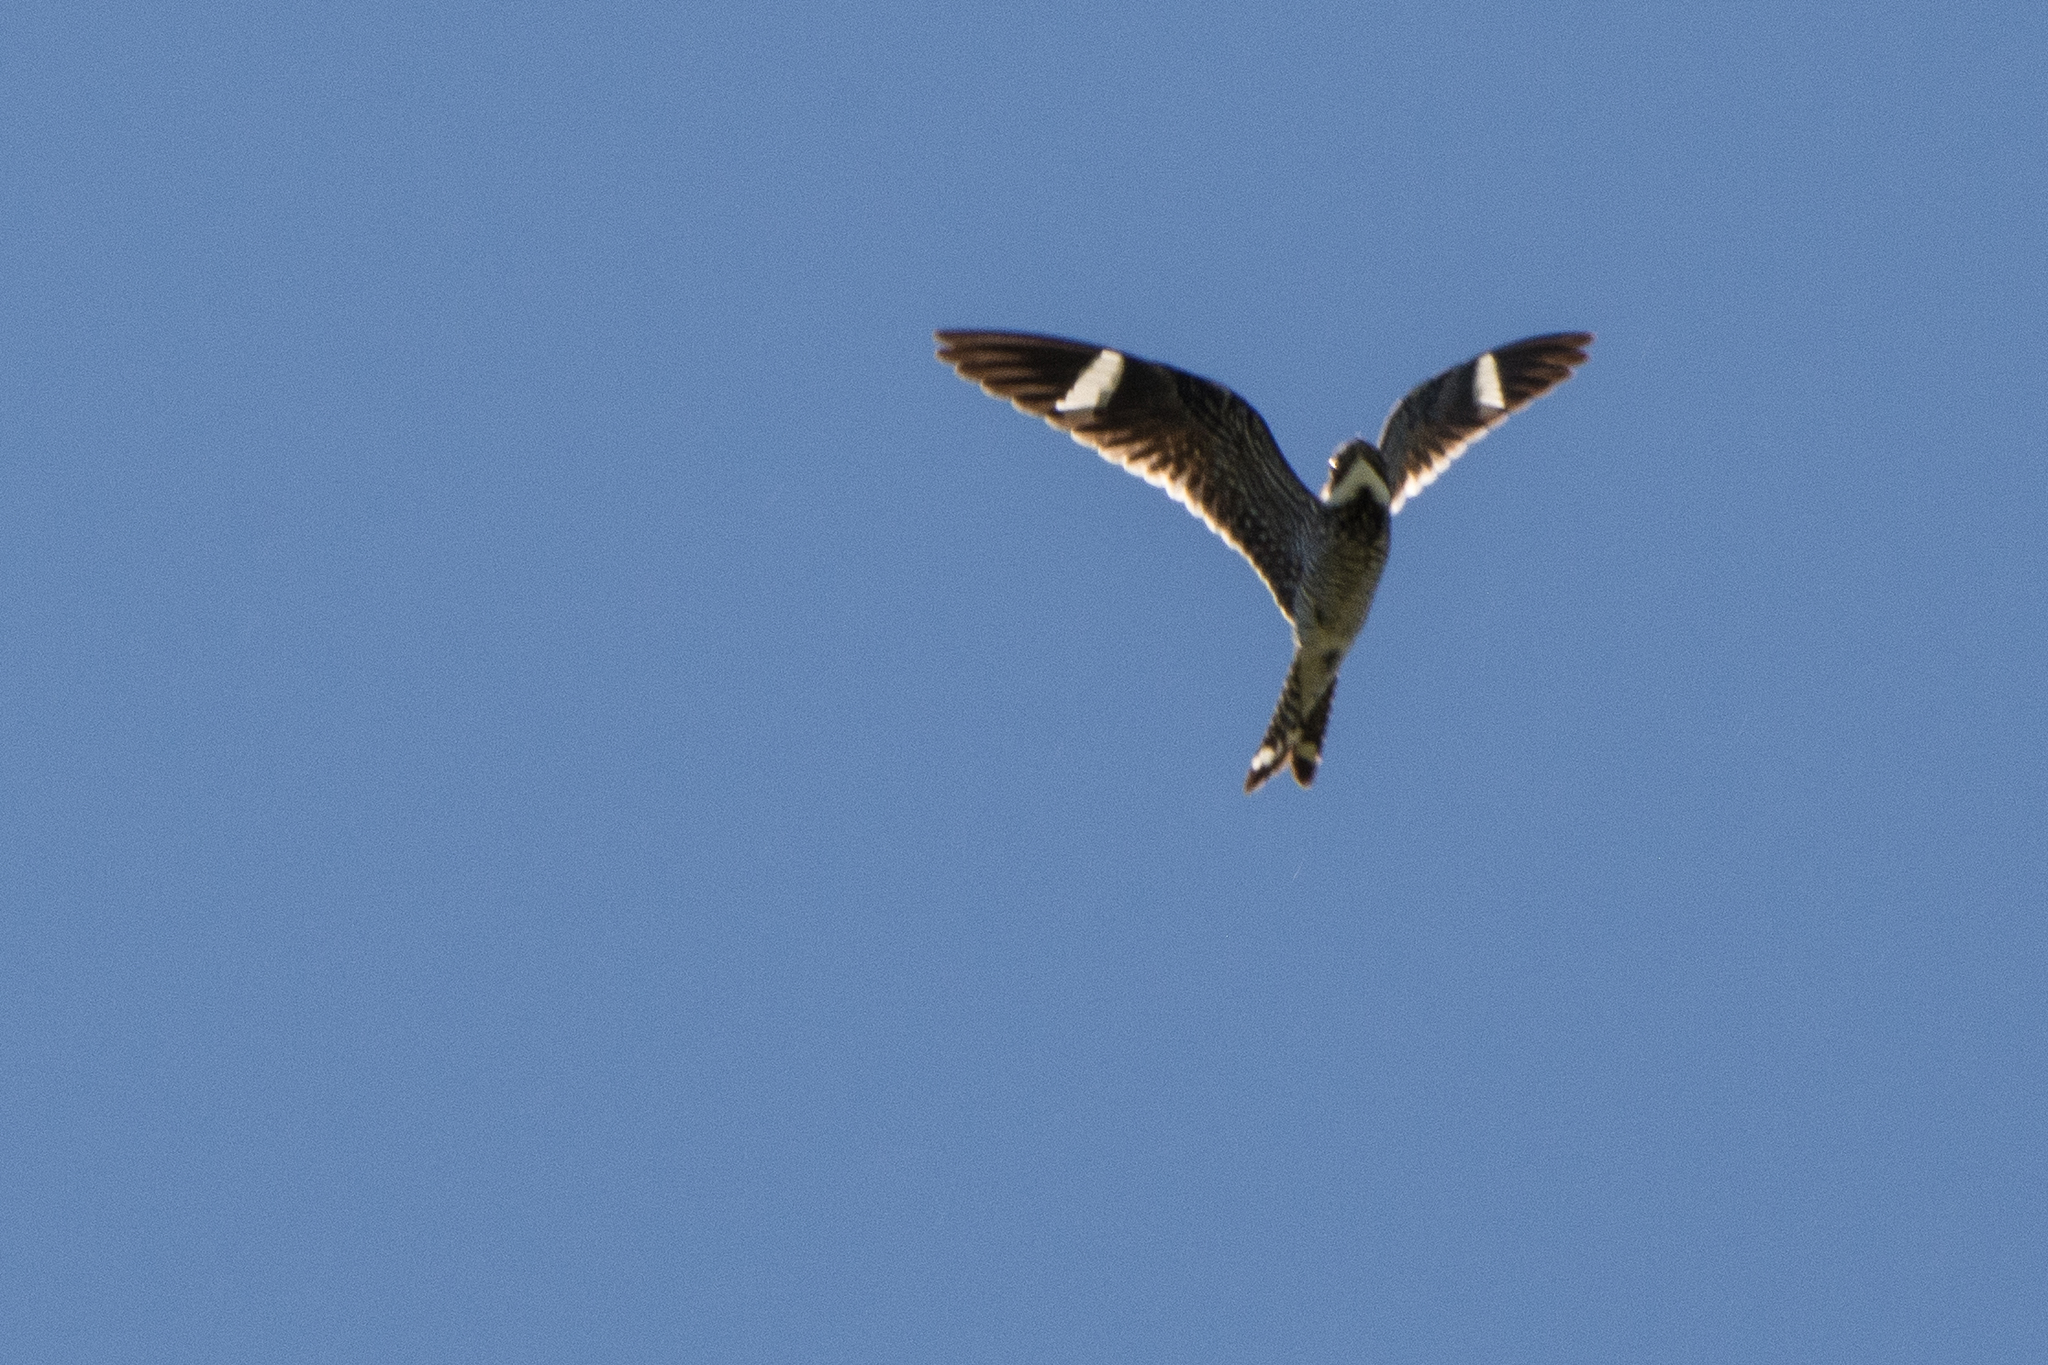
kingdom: Animalia
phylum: Chordata
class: Aves
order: Caprimulgiformes
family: Caprimulgidae
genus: Chordeiles
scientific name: Chordeiles minor
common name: Common nighthawk
